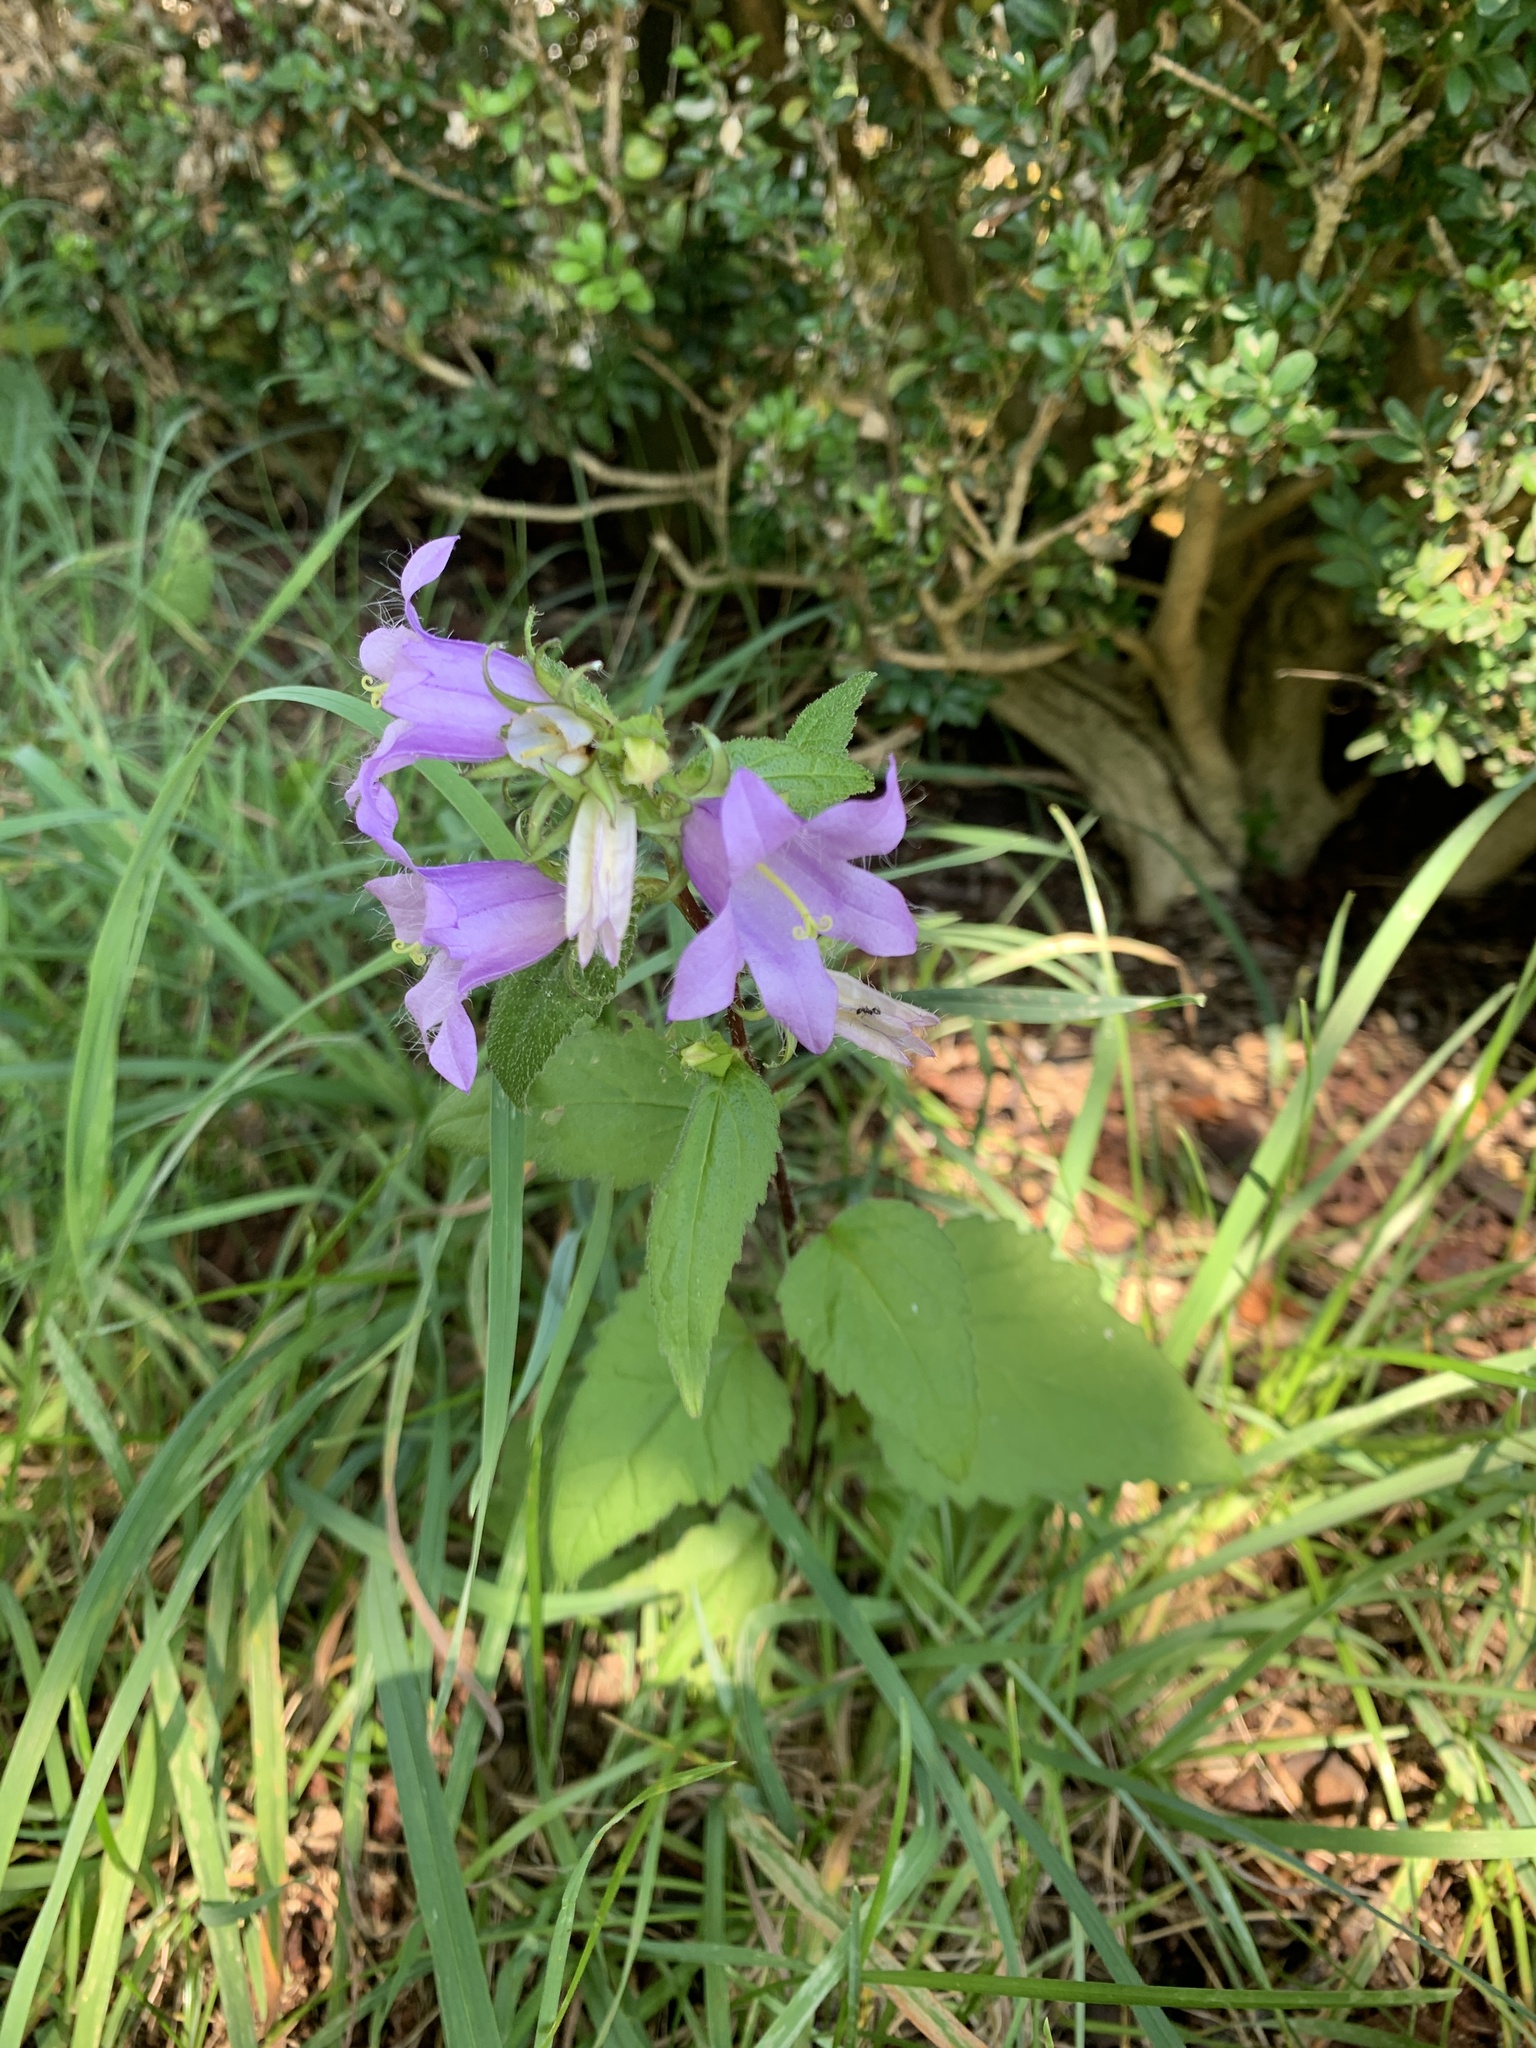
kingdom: Plantae
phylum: Tracheophyta
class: Magnoliopsida
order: Asterales
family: Campanulaceae
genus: Campanula
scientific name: Campanula trachelium
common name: Nettle-leaved bellflower
